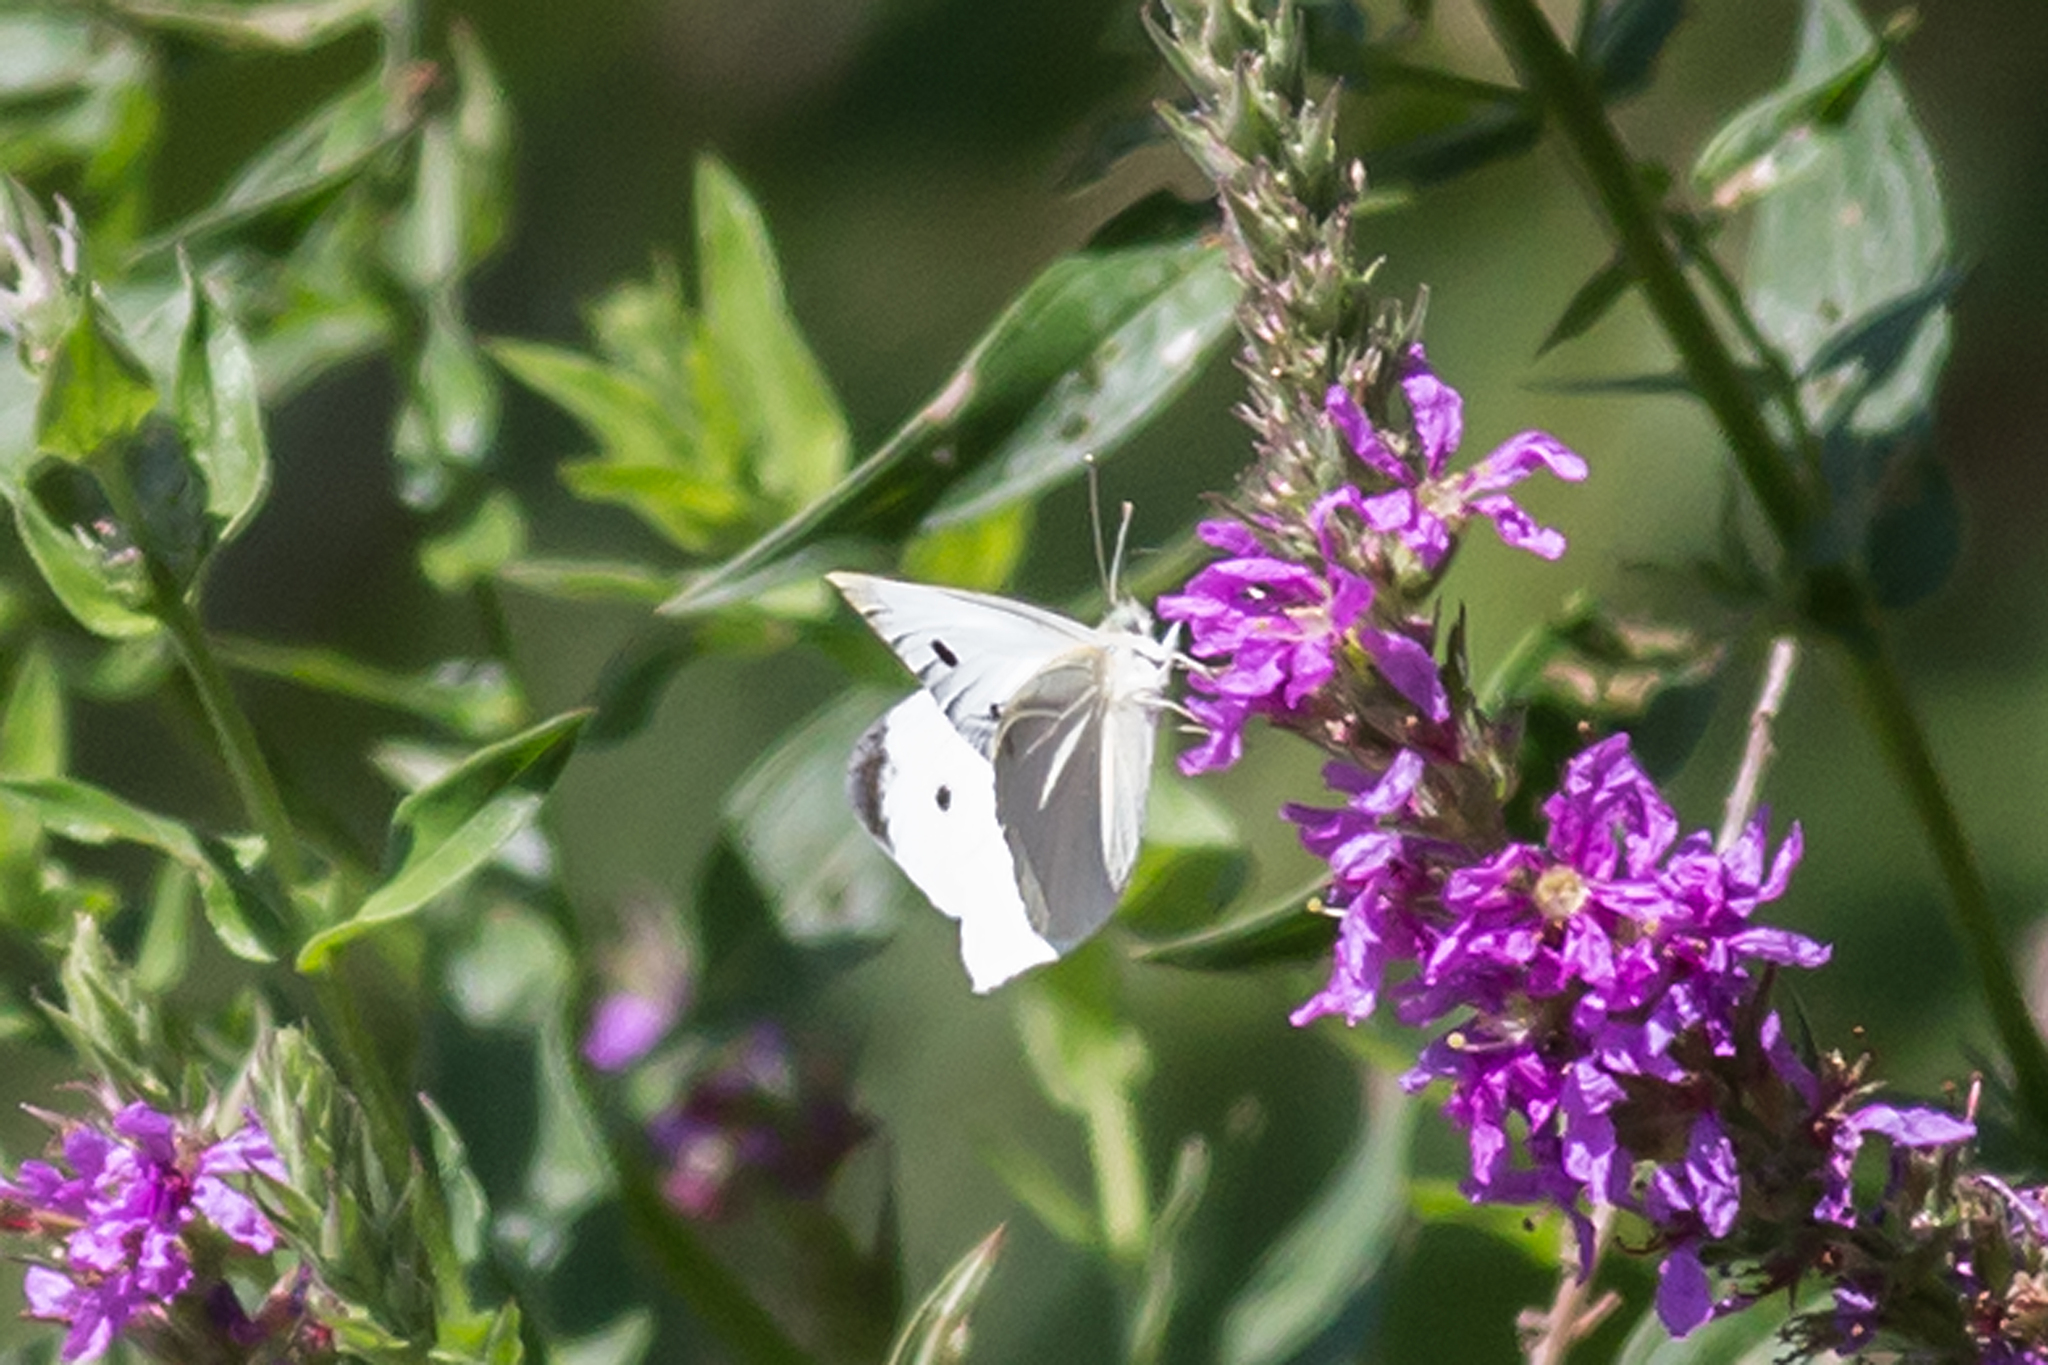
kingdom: Animalia
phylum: Arthropoda
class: Insecta
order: Lepidoptera
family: Pieridae
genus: Pieris
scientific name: Pieris rapae
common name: Small white
